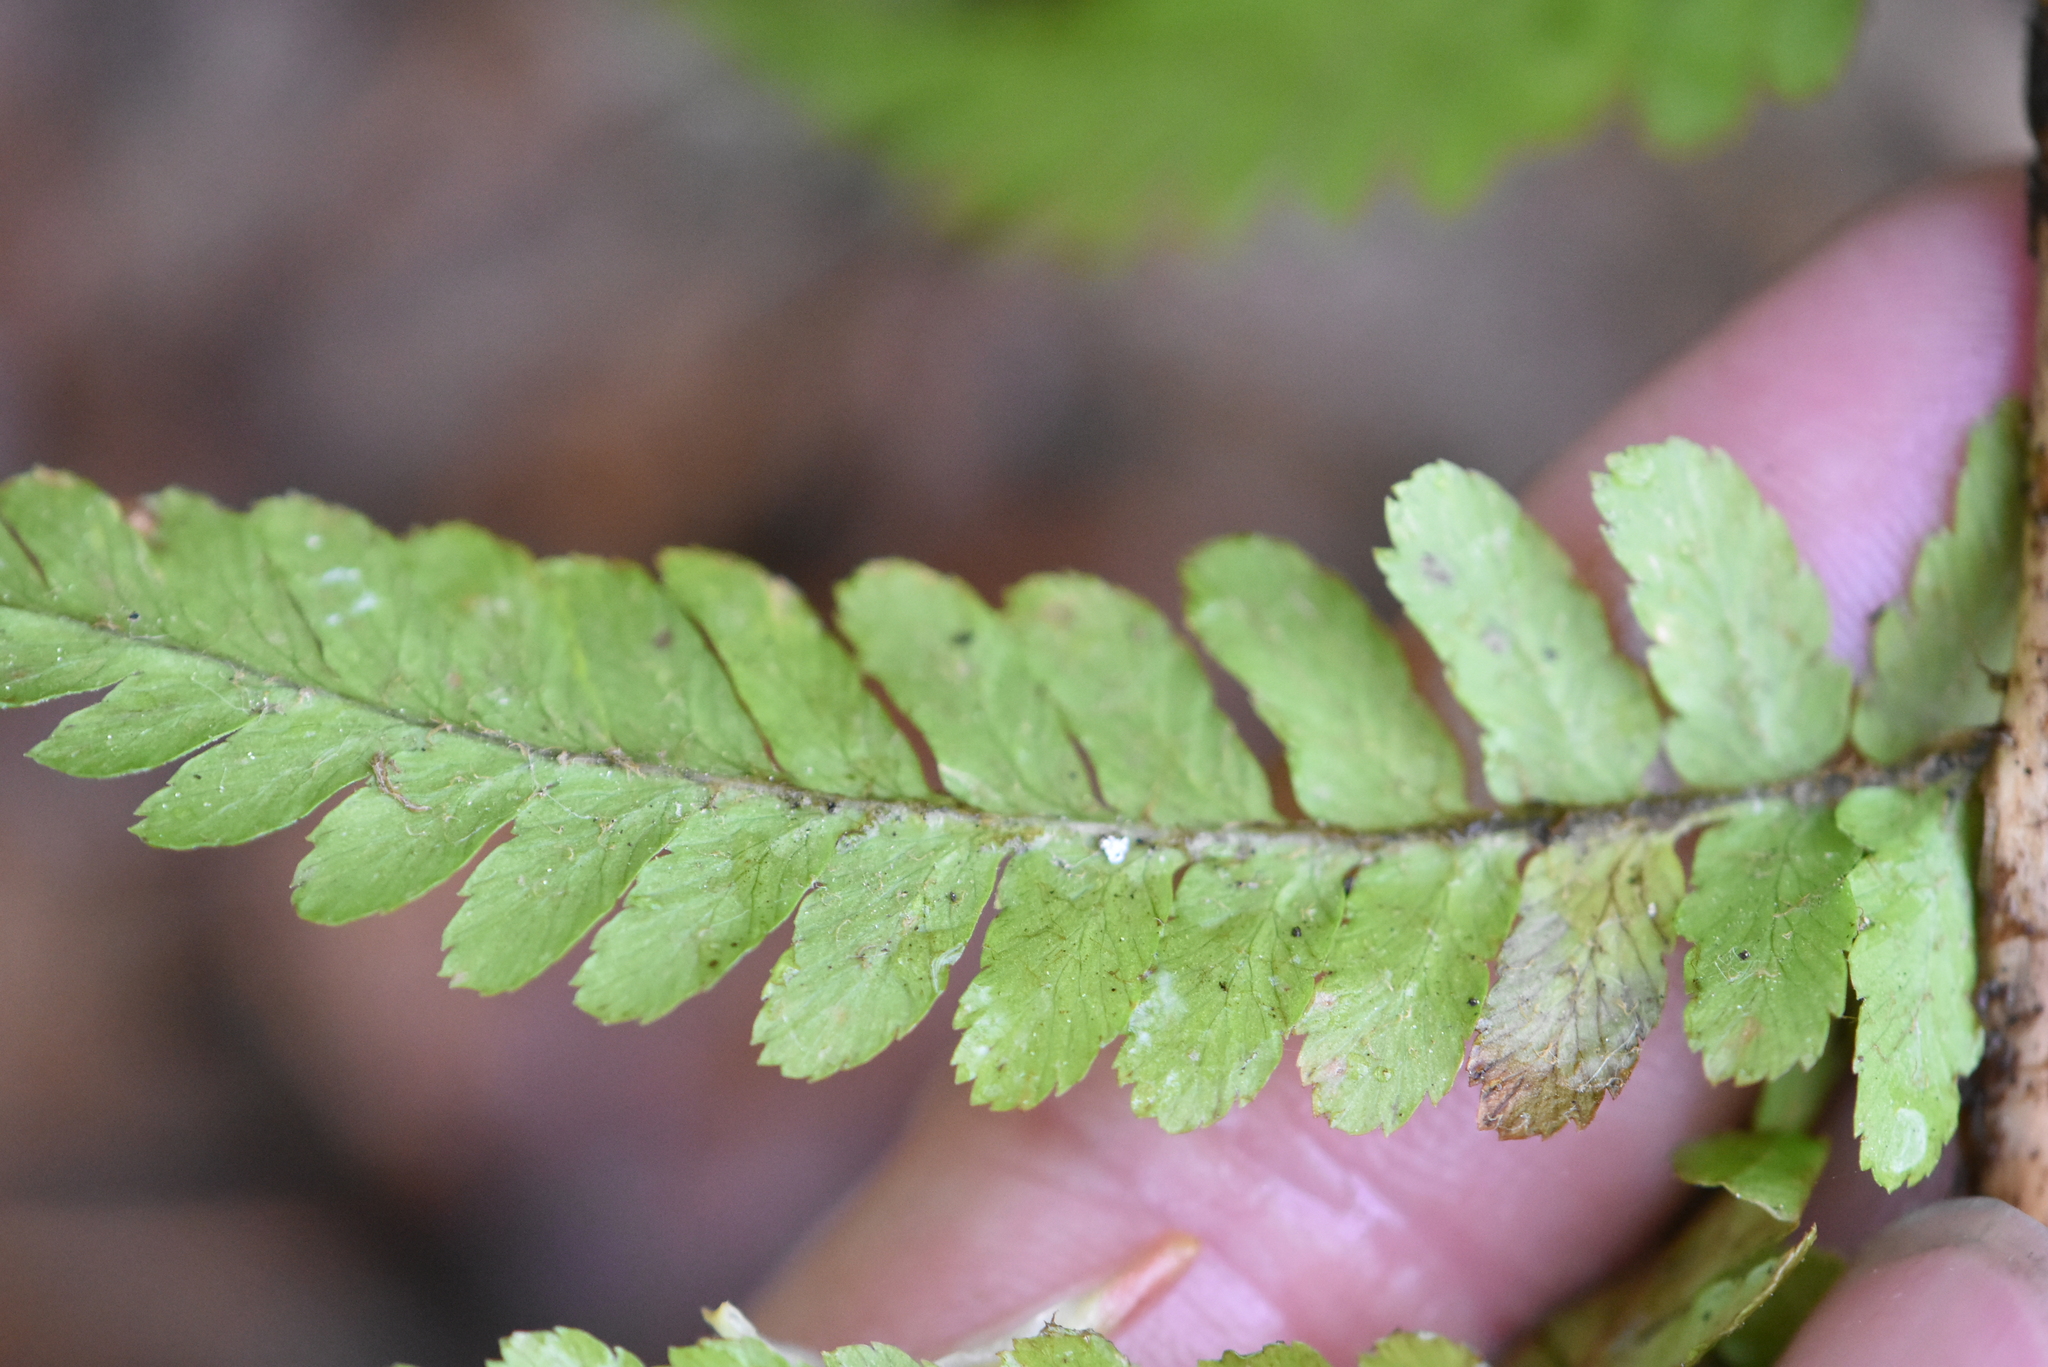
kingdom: Plantae
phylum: Tracheophyta
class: Polypodiopsida
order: Polypodiales
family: Dryopteridaceae
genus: Dryopteris
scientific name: Dryopteris filix-mas
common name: Male fern
